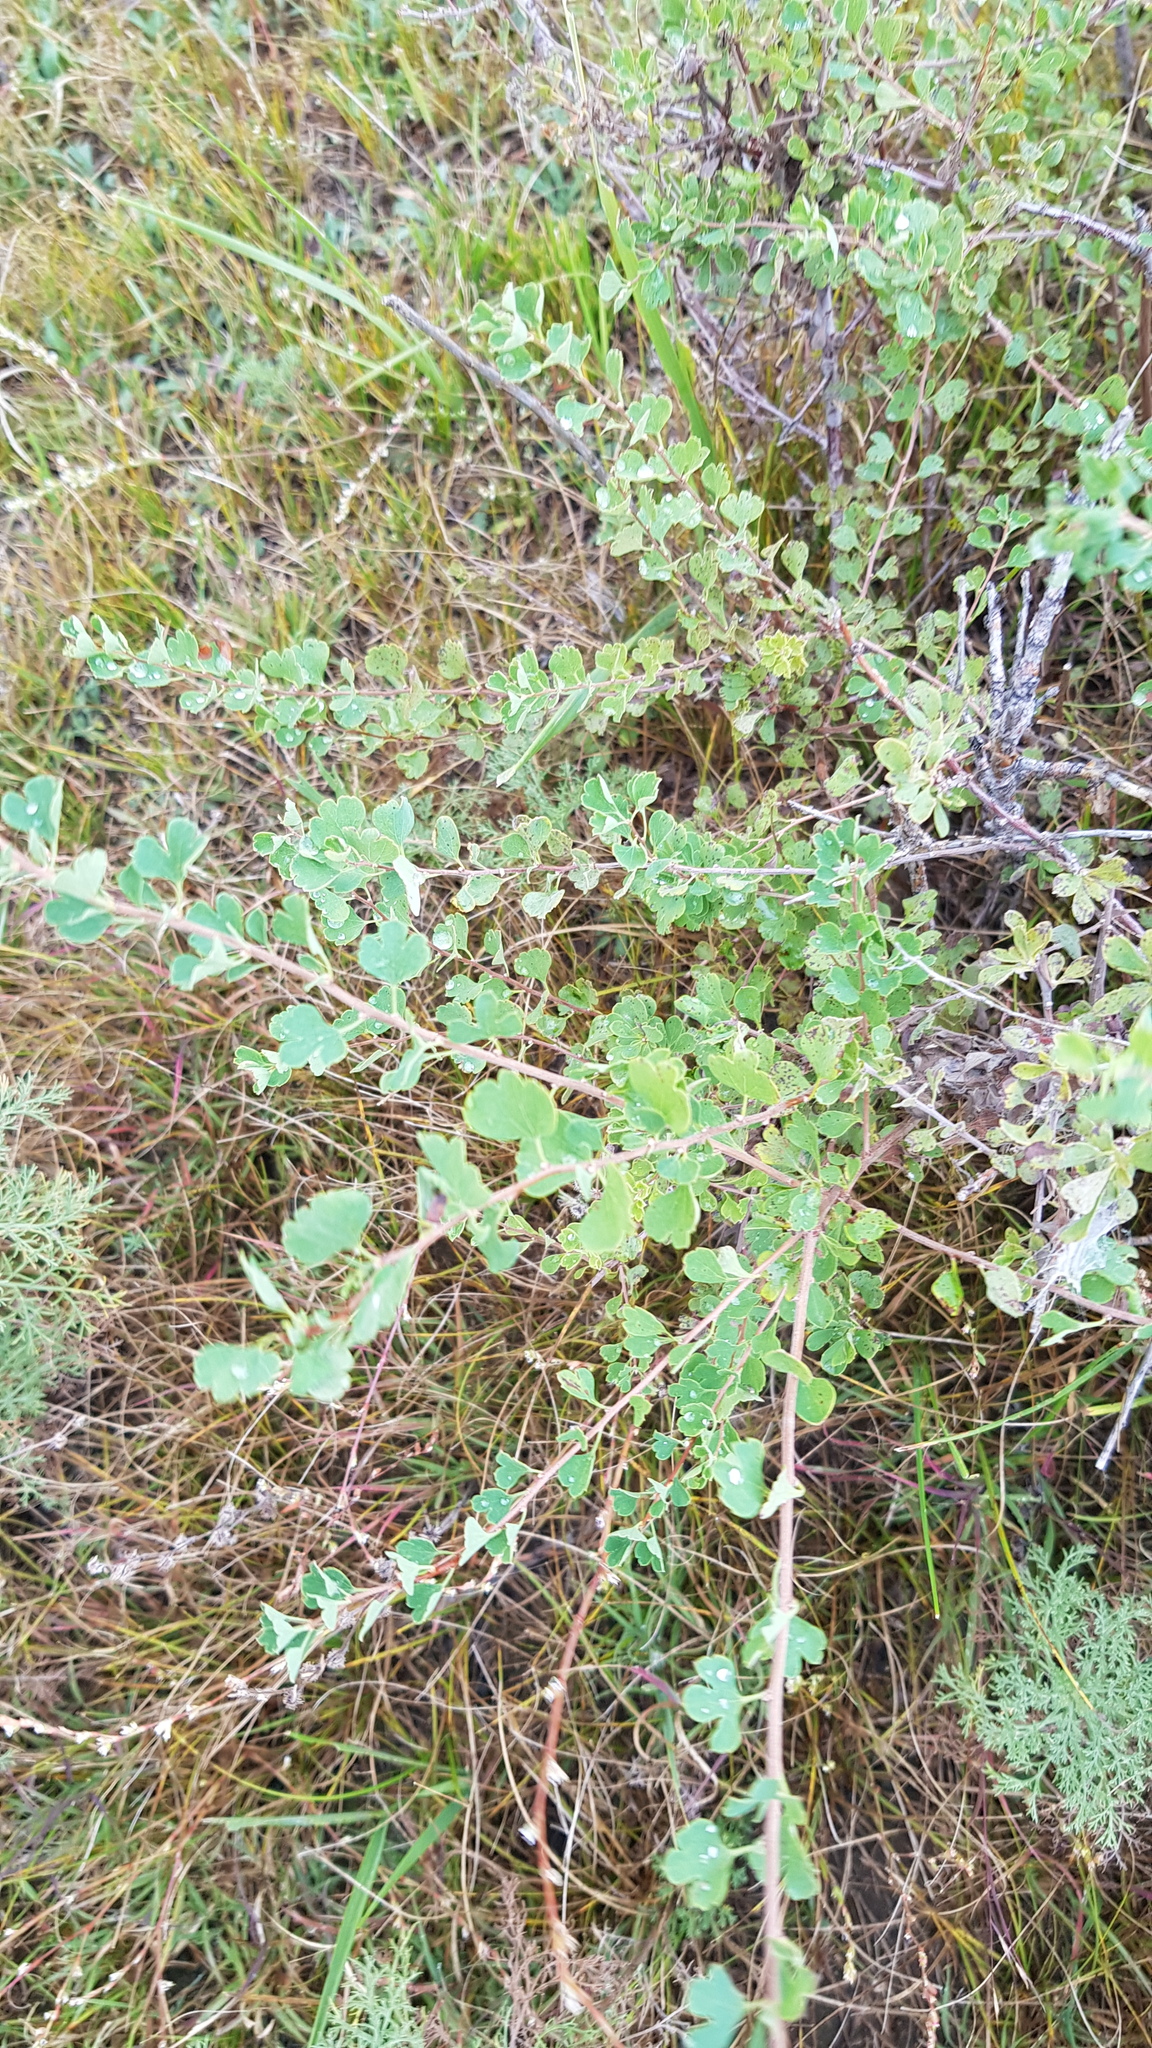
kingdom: Plantae
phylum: Tracheophyta
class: Magnoliopsida
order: Rosales
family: Rosaceae
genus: Spiraea
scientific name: Spiraea aquilegifolia
